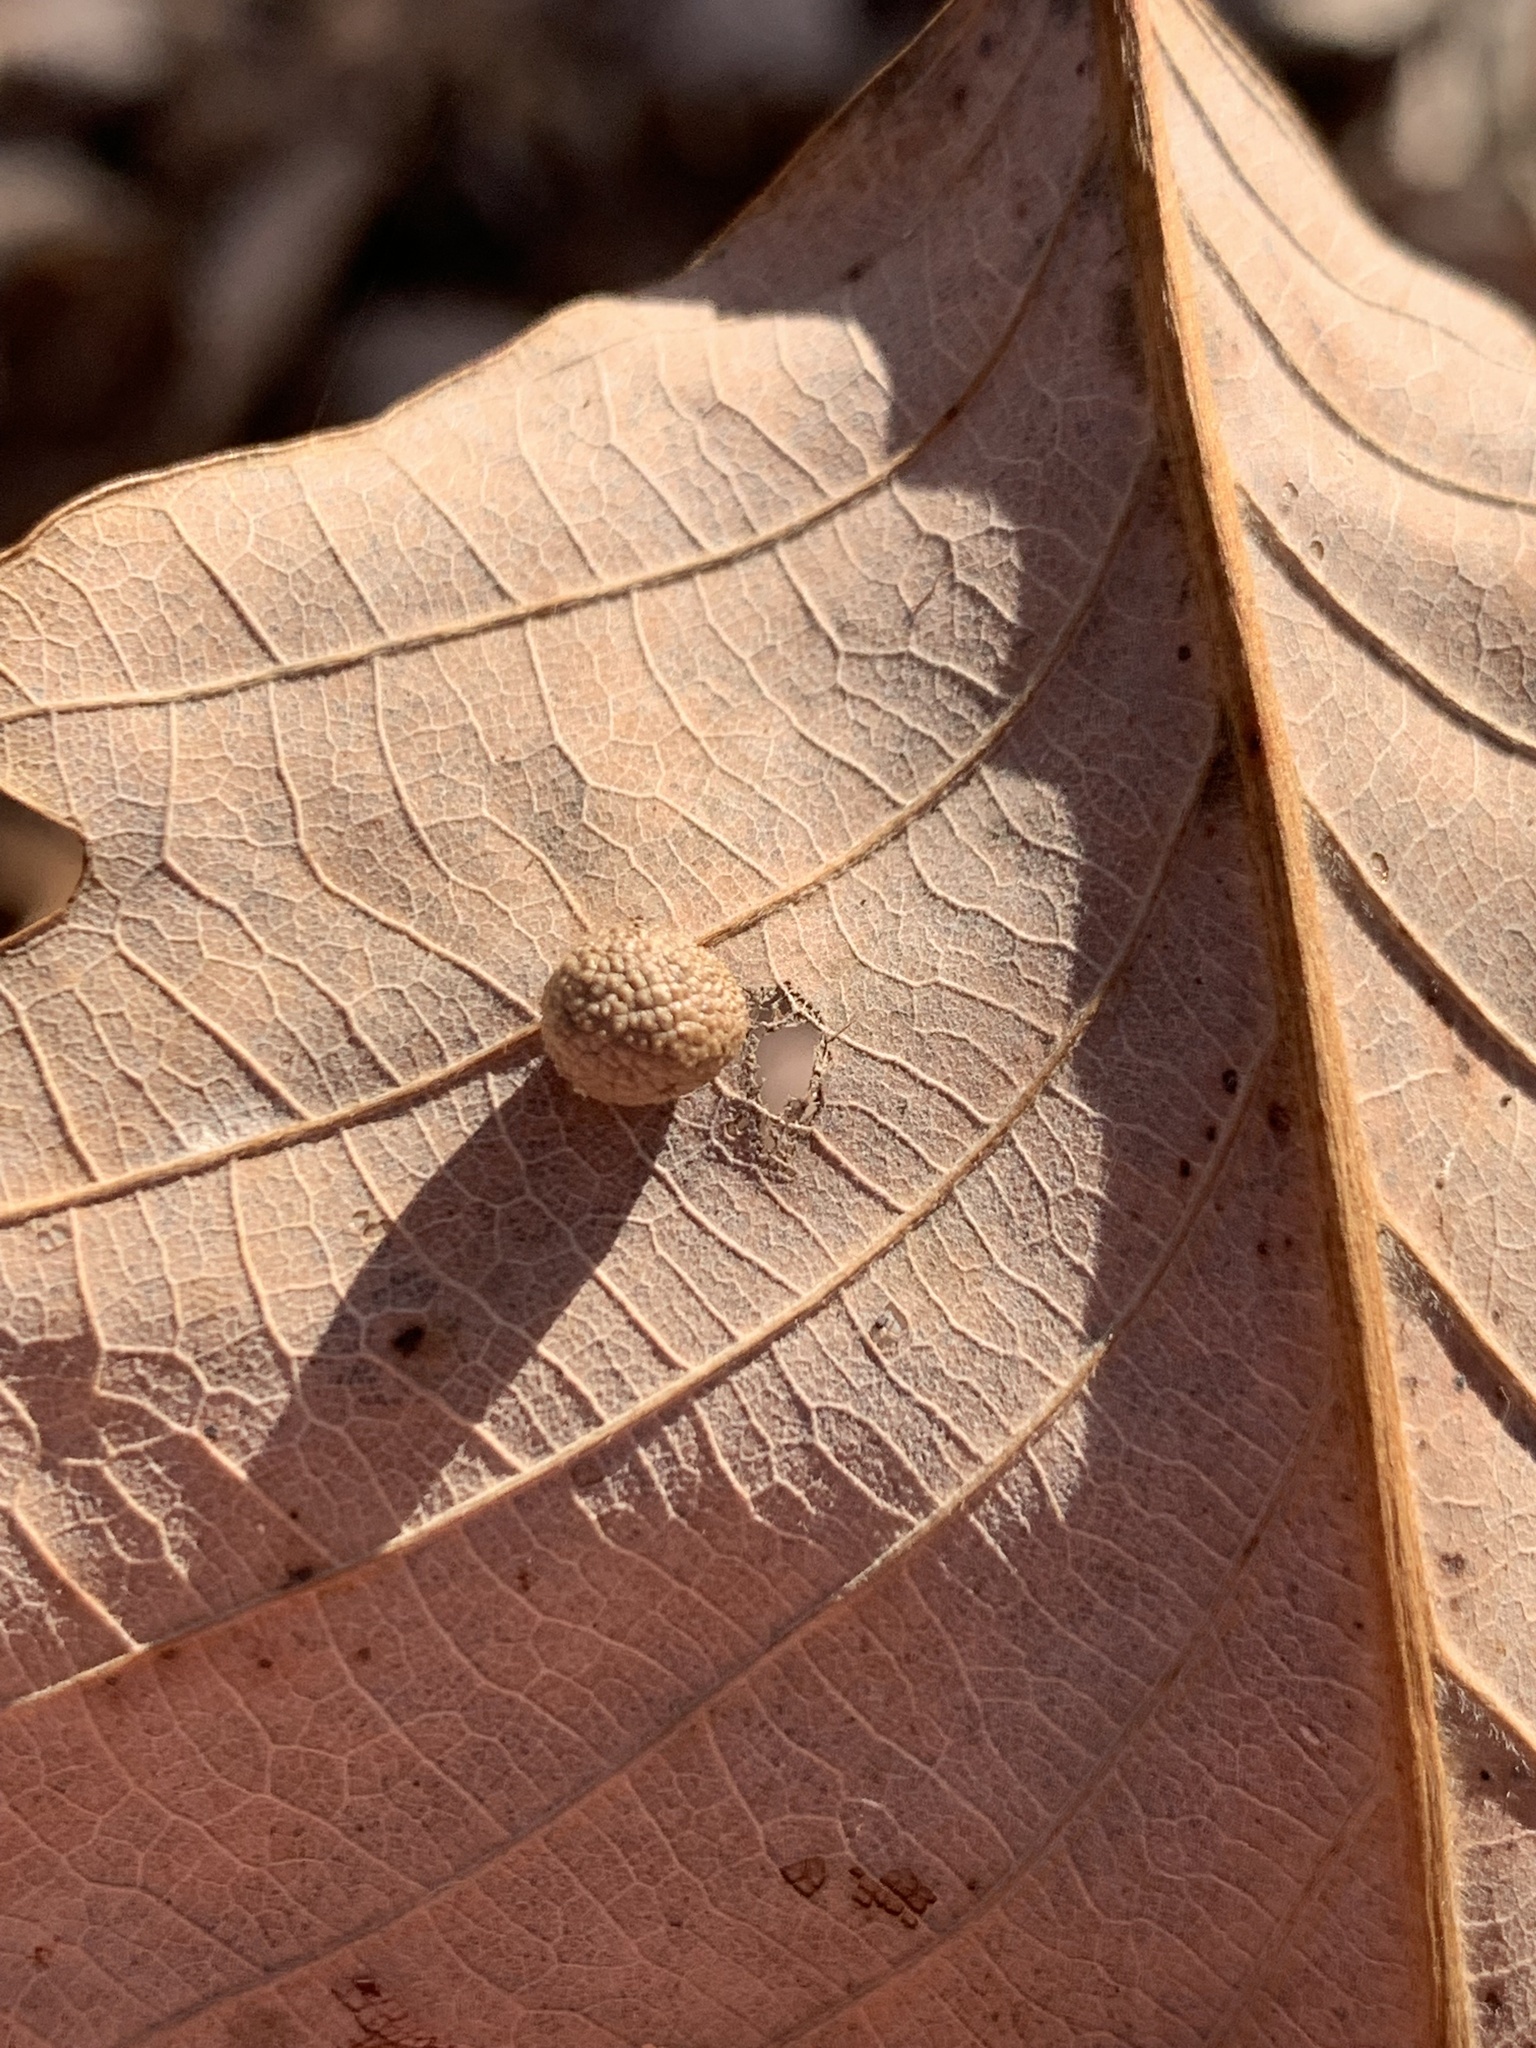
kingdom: Animalia
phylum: Arthropoda
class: Insecta
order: Hymenoptera
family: Cynipidae
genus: Acraspis
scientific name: Acraspis quercushirta
